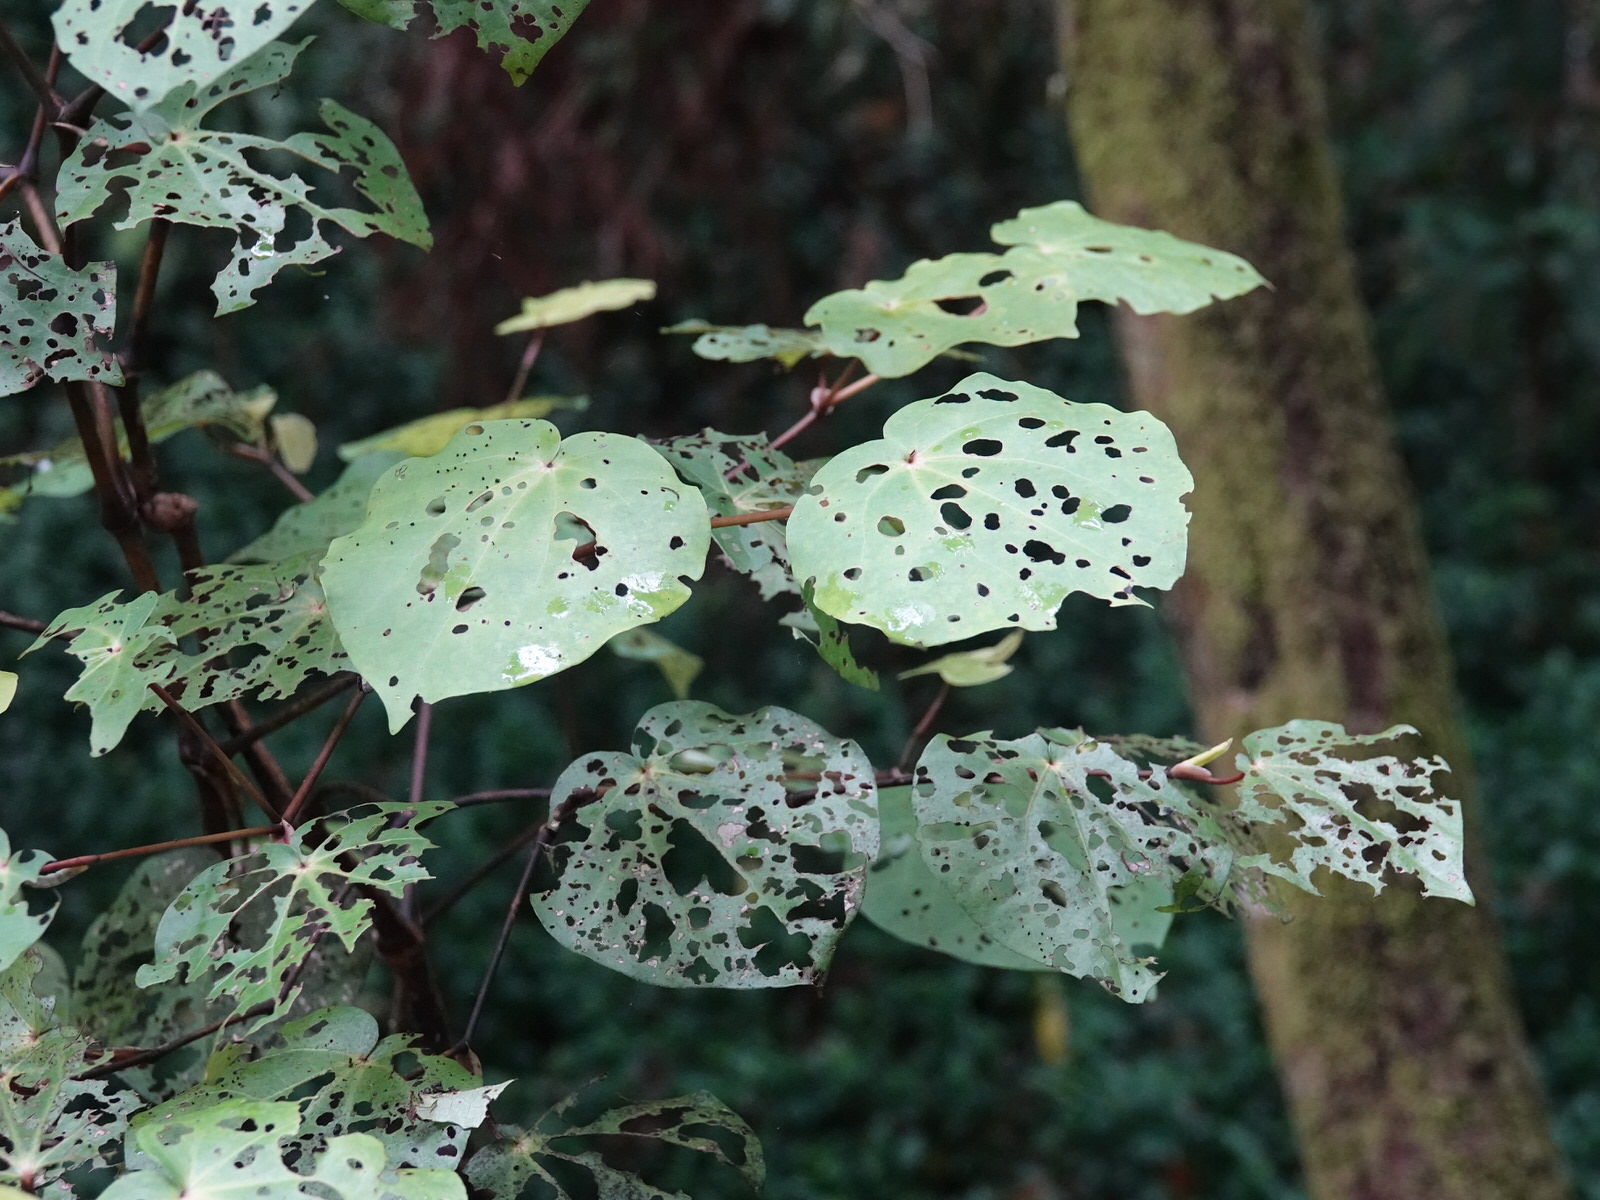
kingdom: Plantae
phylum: Tracheophyta
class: Magnoliopsida
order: Piperales
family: Piperaceae
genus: Macropiper
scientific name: Macropiper excelsum
